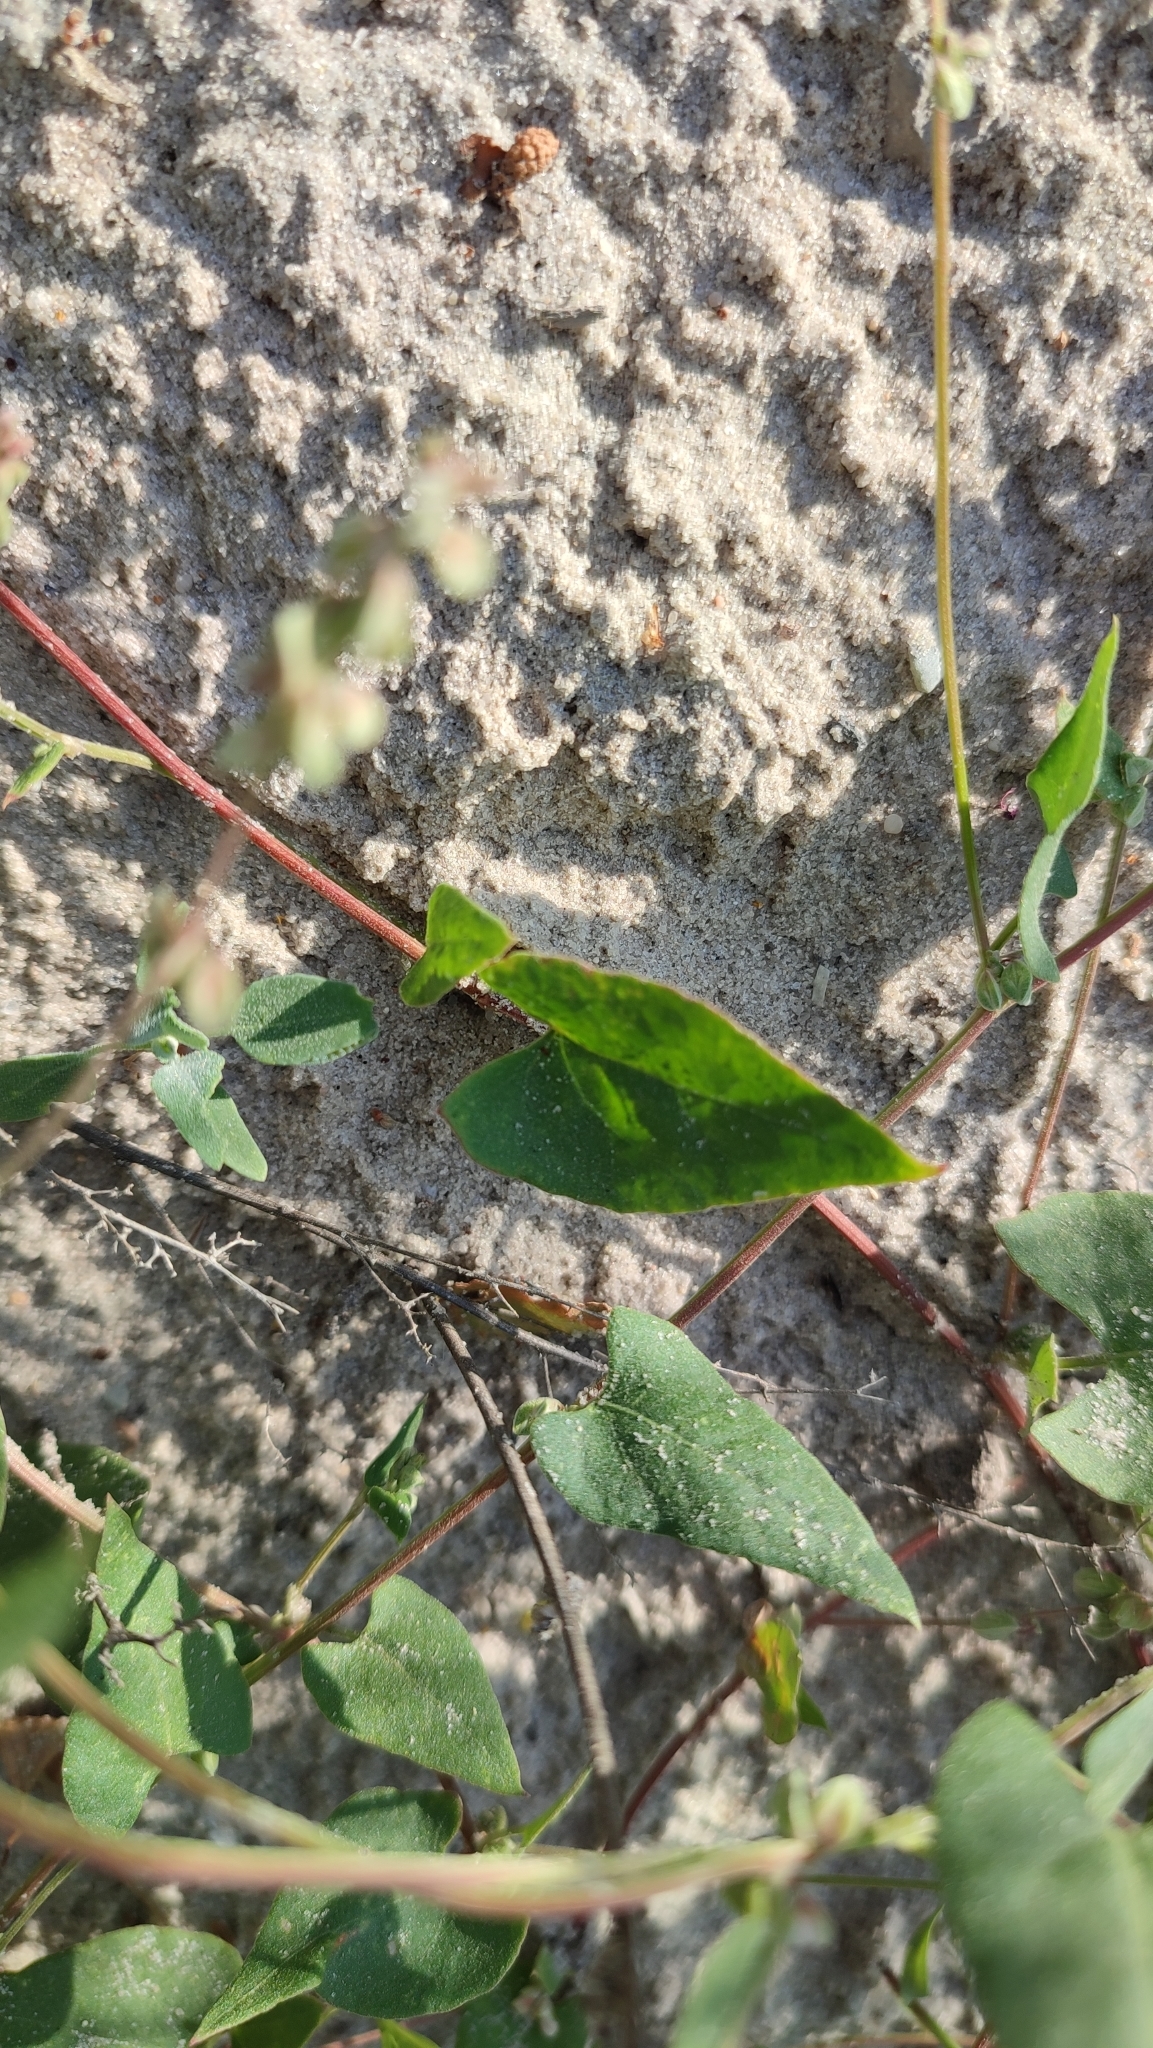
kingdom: Plantae
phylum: Tracheophyta
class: Magnoliopsida
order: Caryophyllales
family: Polygonaceae
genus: Fallopia
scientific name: Fallopia convolvulus
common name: Black bindweed
